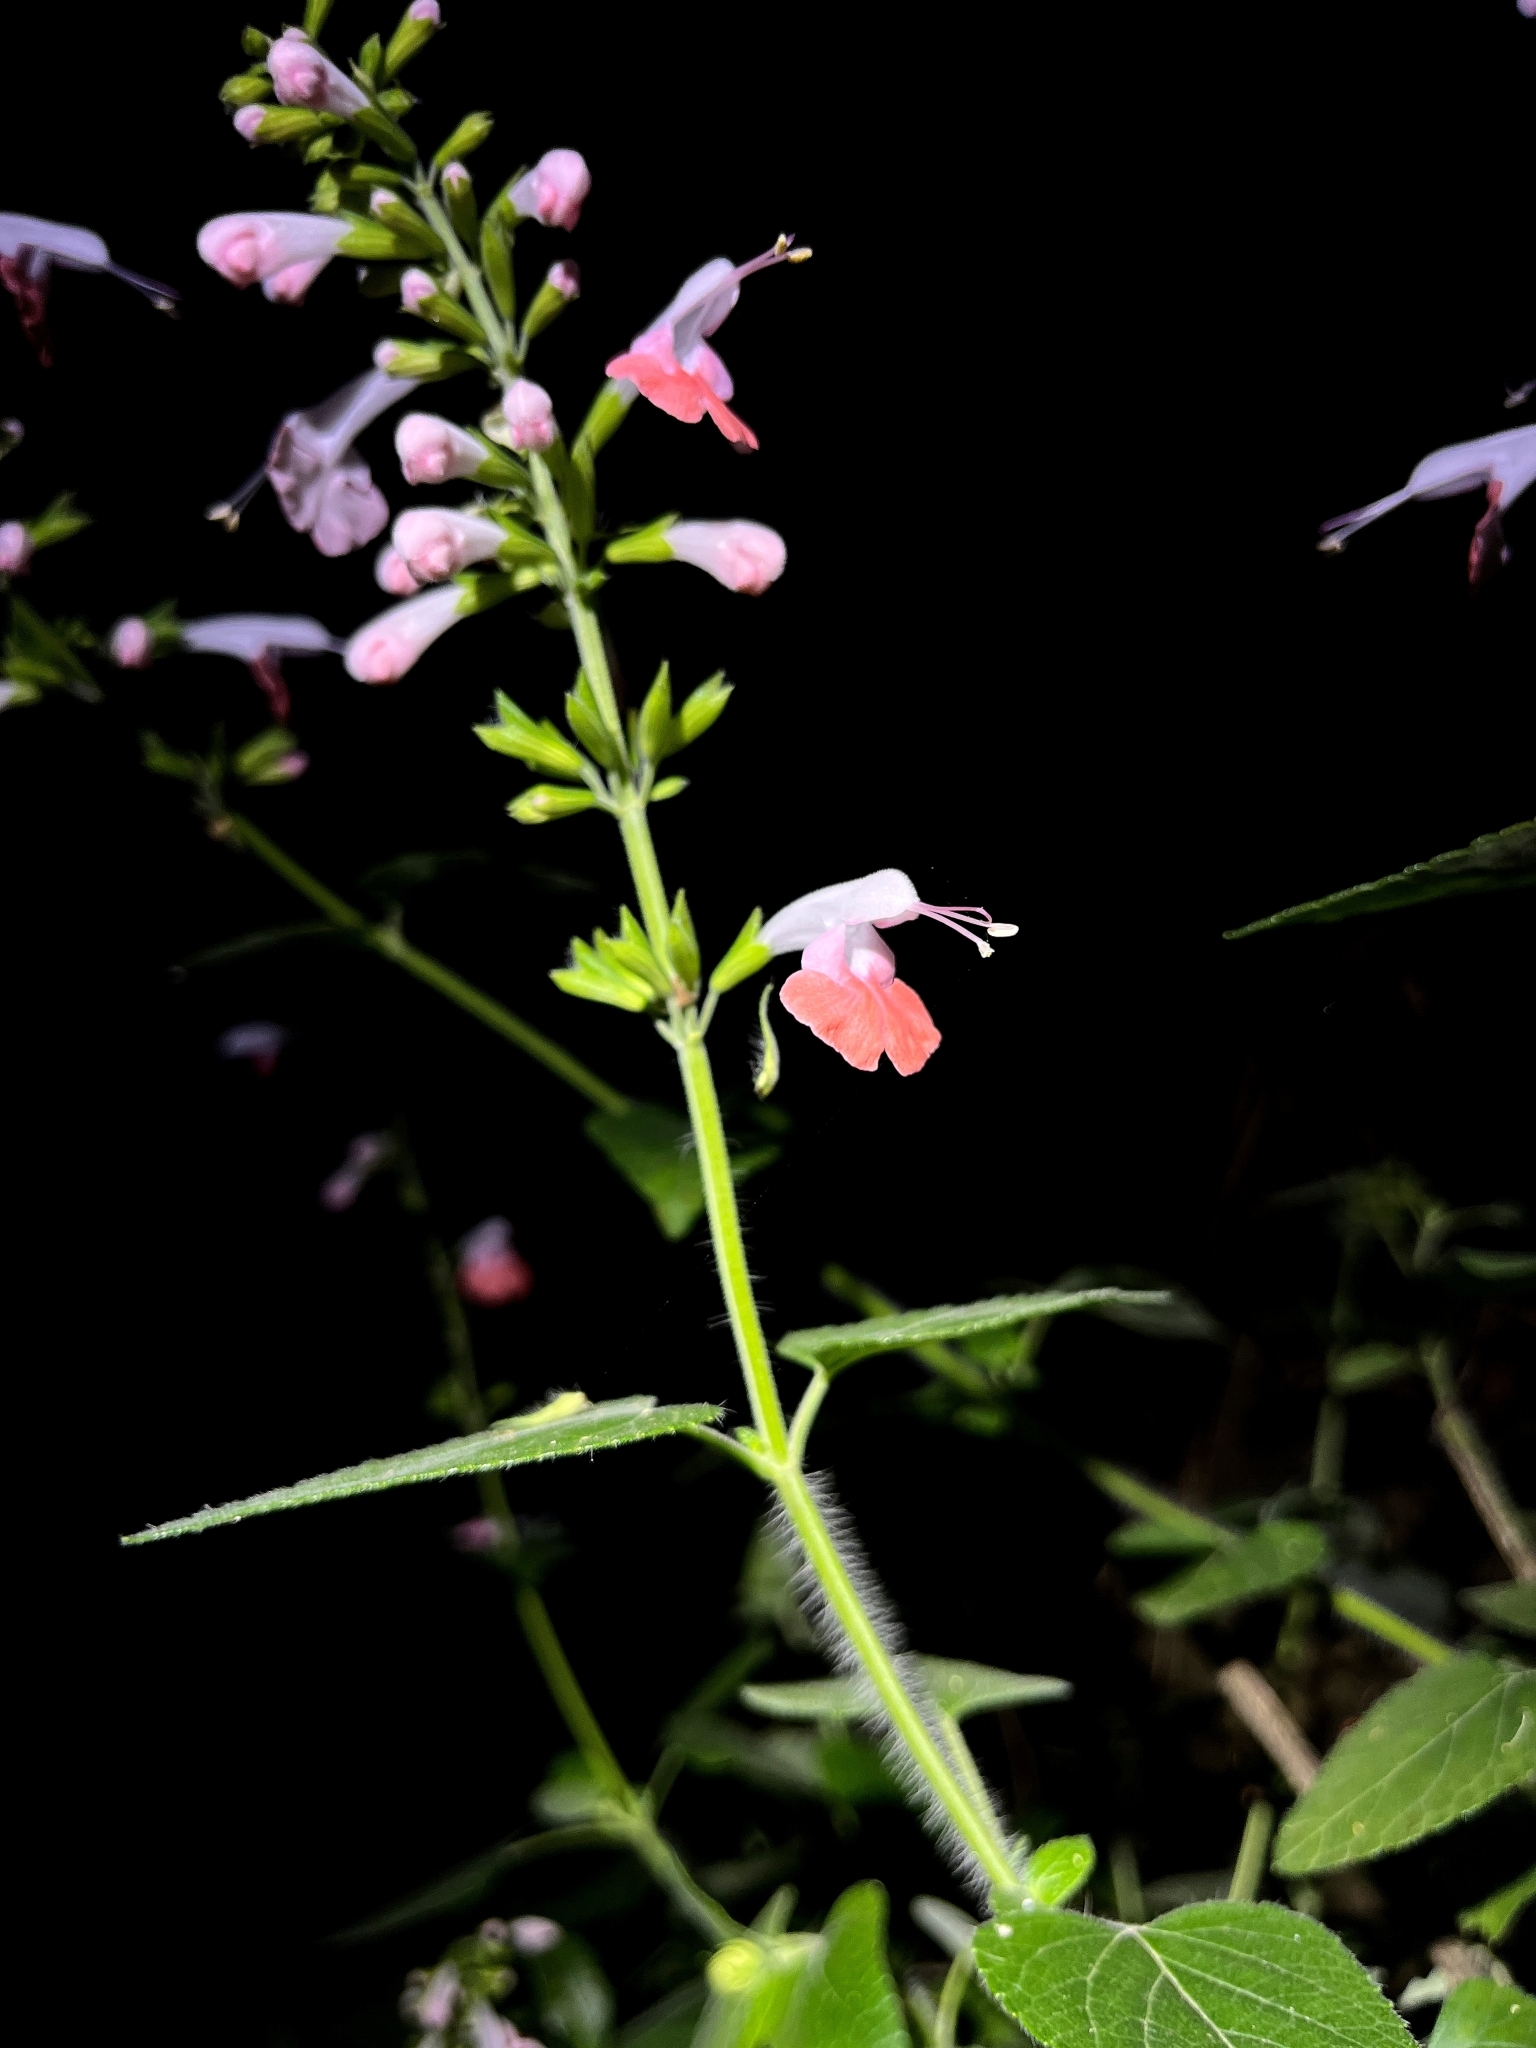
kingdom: Plantae
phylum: Tracheophyta
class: Magnoliopsida
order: Lamiales
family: Lamiaceae
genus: Salvia
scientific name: Salvia coccinea
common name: Blood sage
